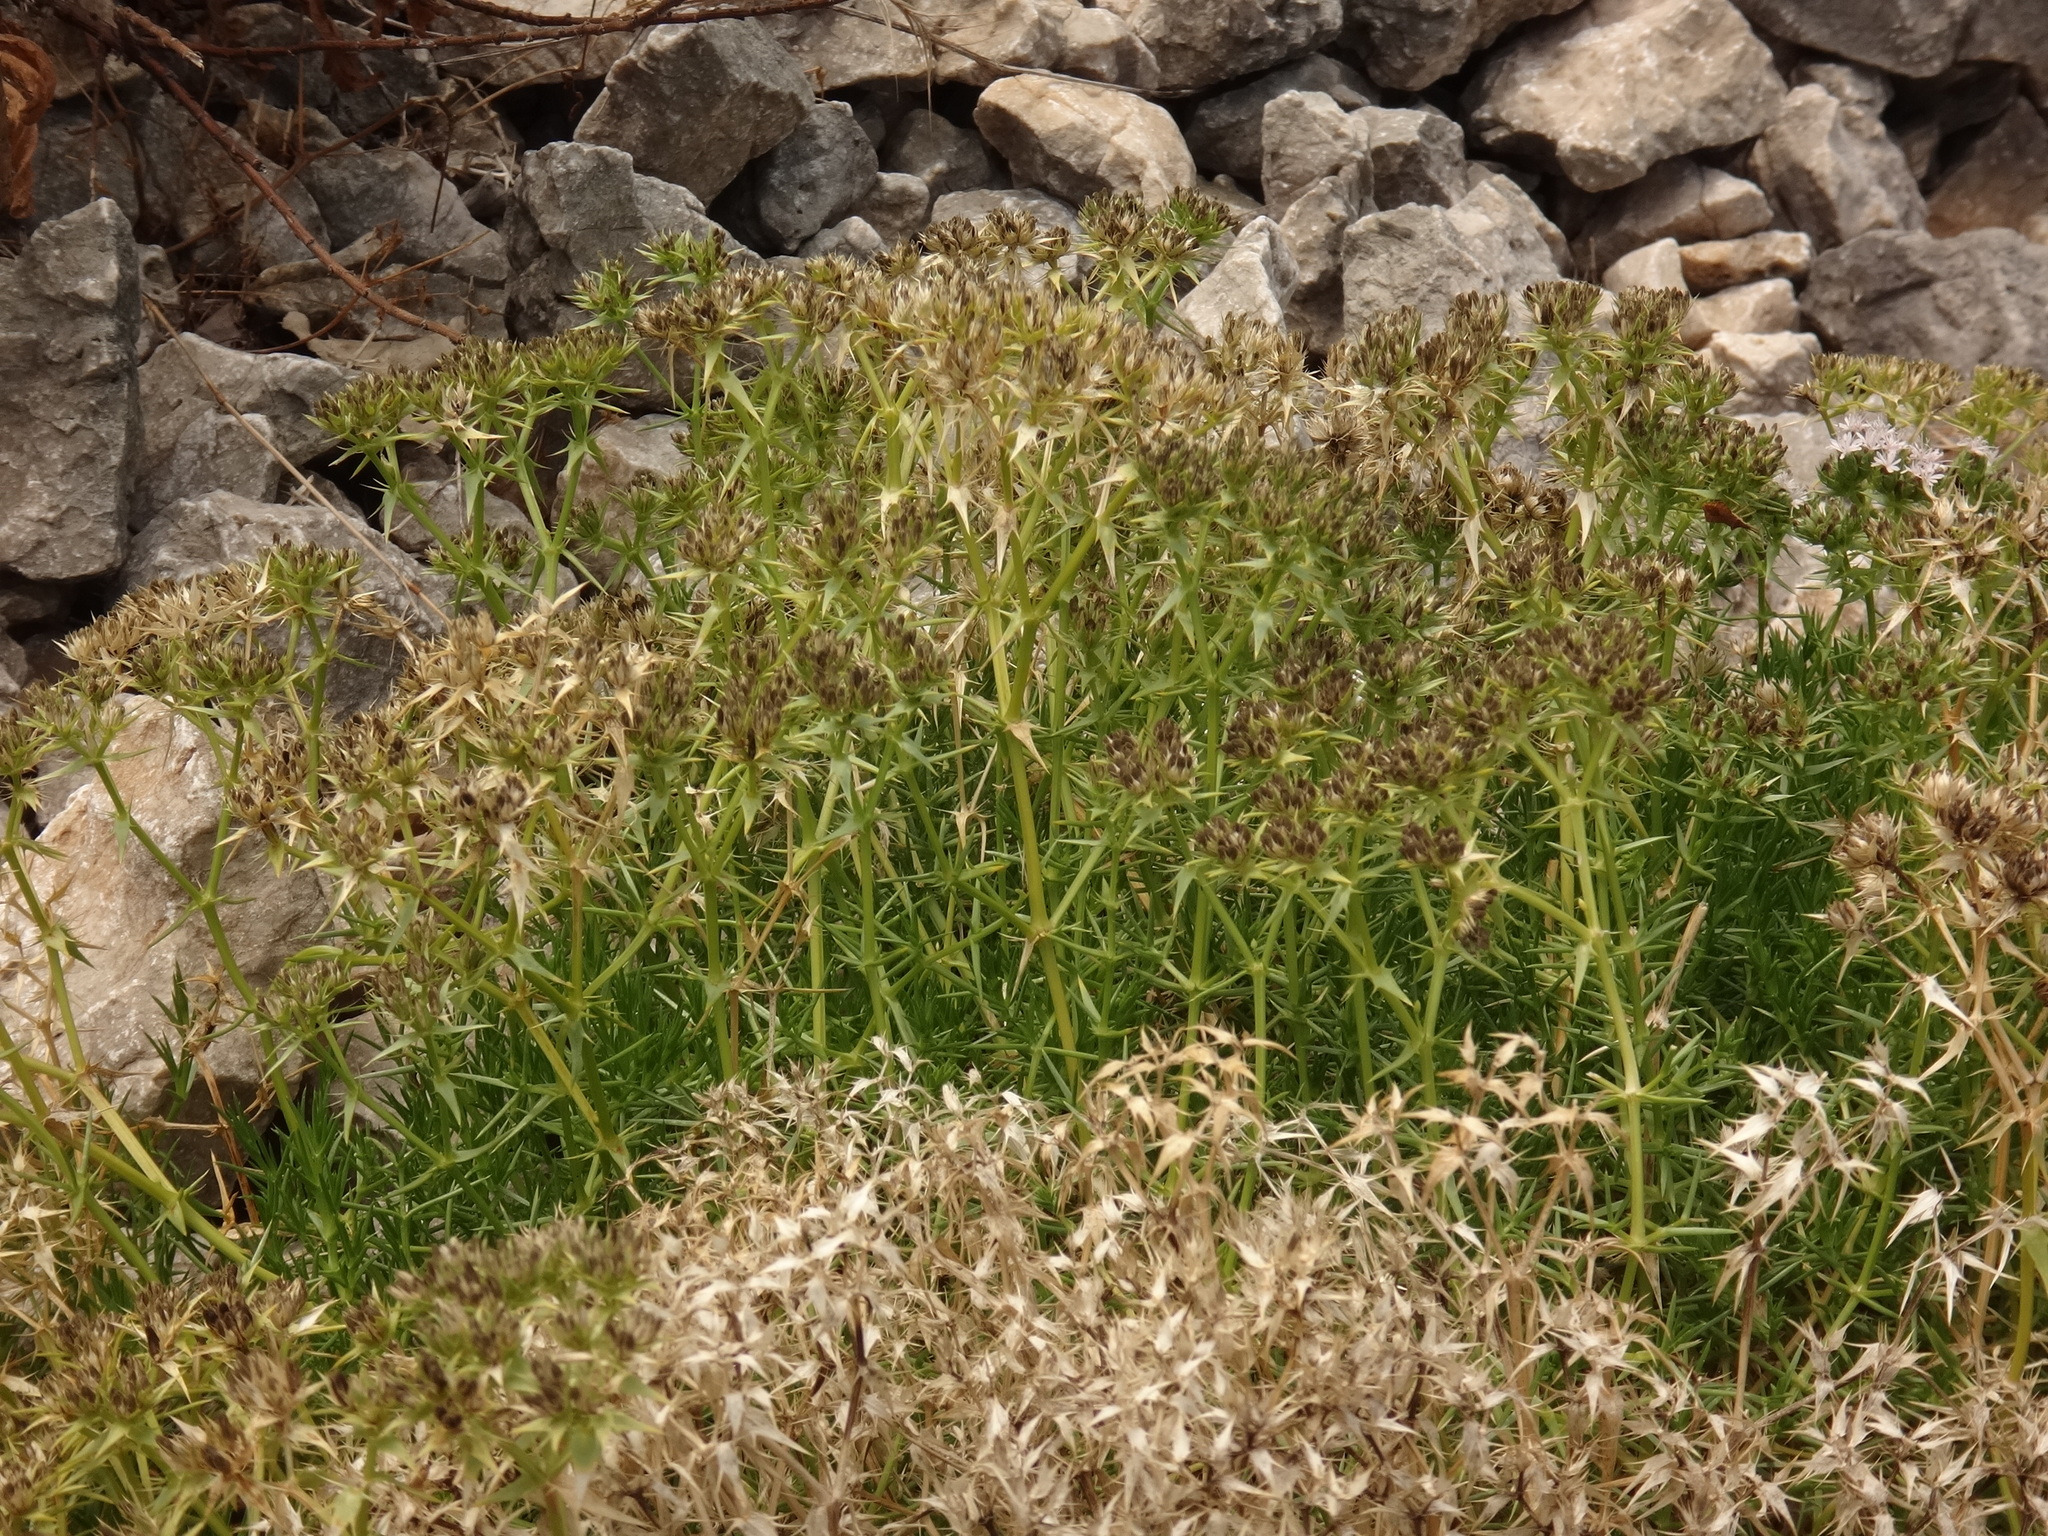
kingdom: Plantae
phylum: Tracheophyta
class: Magnoliopsida
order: Caryophyllales
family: Caryophyllaceae
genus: Drypis
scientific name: Drypis spinosa
